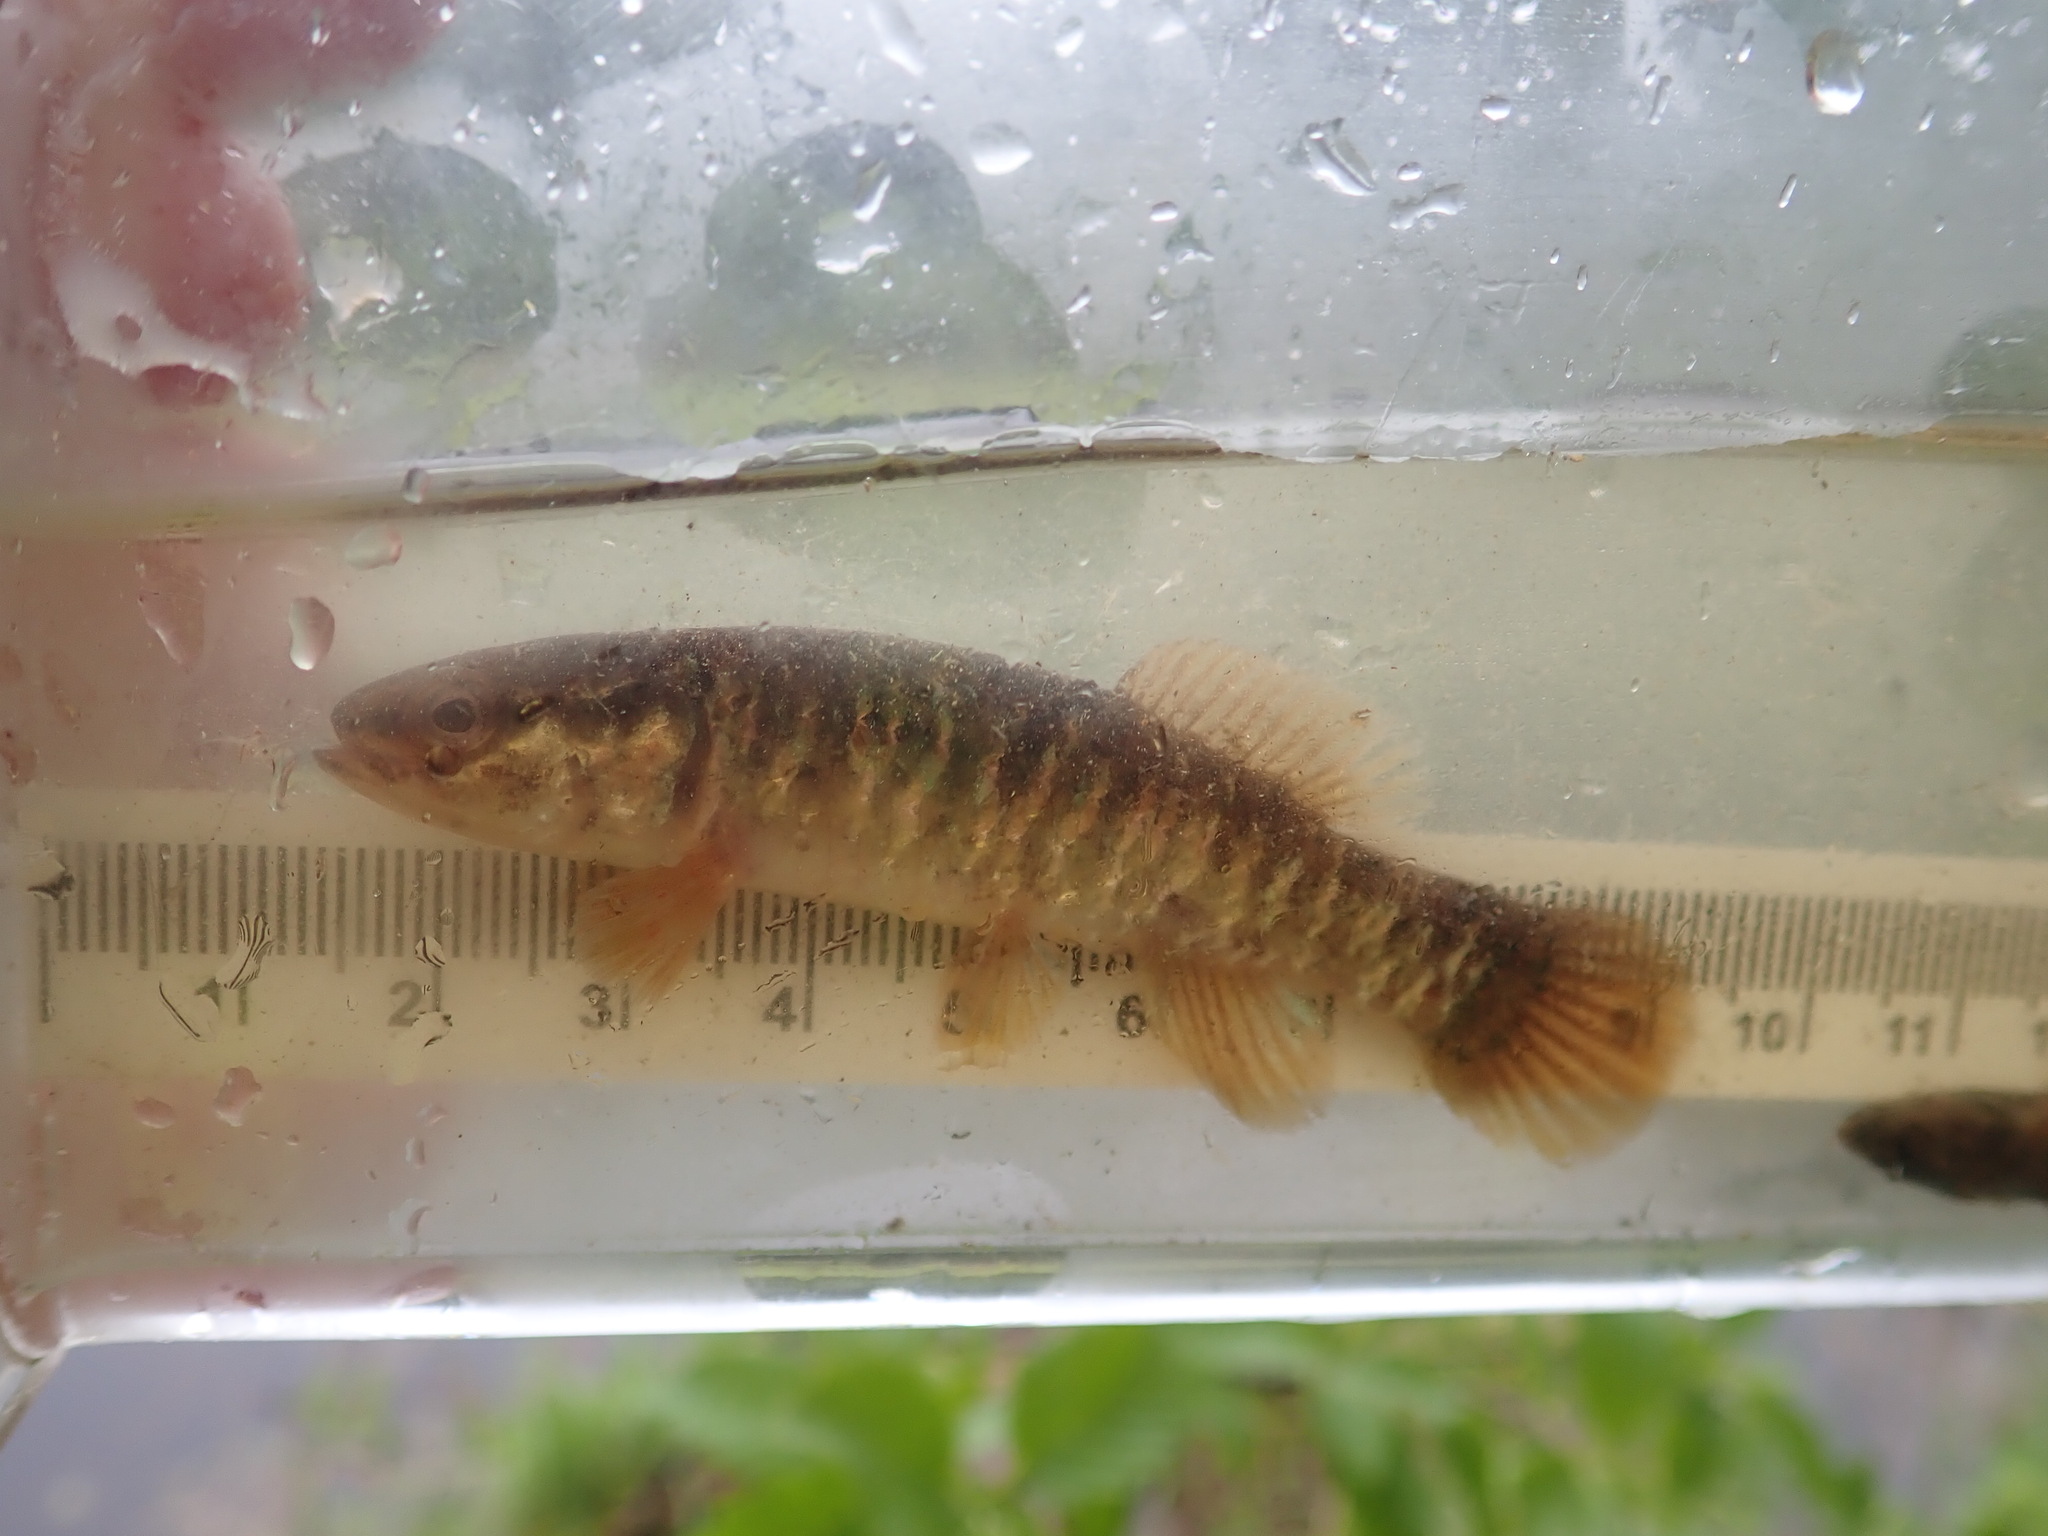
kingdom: Animalia
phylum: Chordata
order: Esociformes
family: Umbridae
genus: Umbra
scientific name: Umbra limi
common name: Central mudminnow
